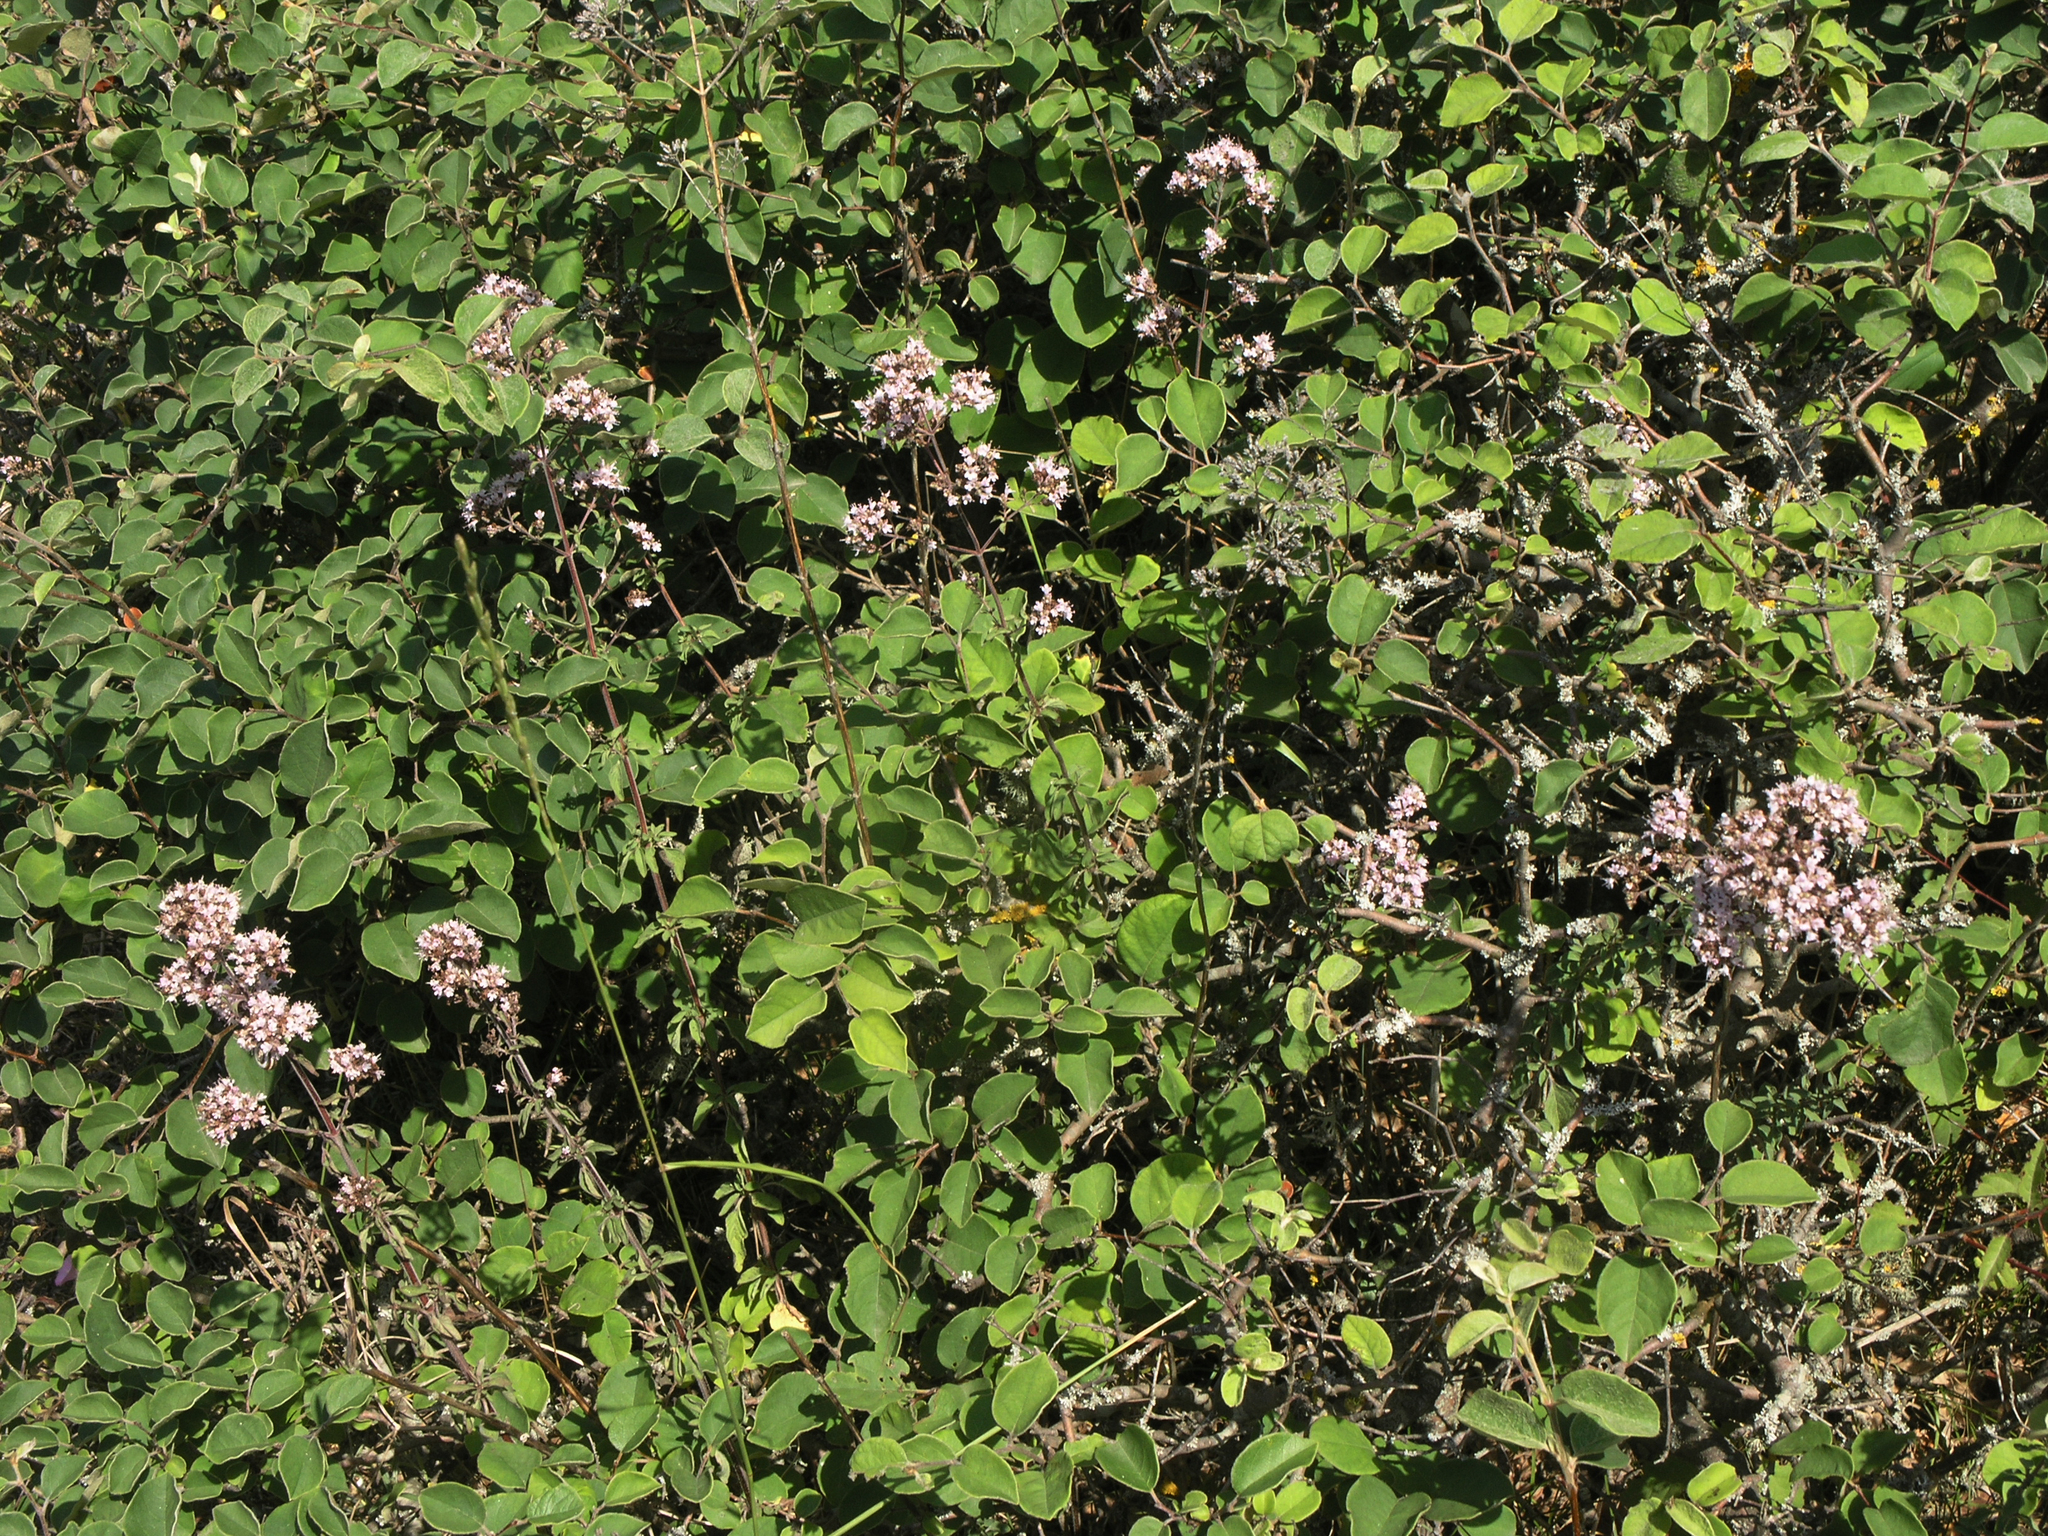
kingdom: Plantae
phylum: Tracheophyta
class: Magnoliopsida
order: Lamiales
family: Lamiaceae
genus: Origanum
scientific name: Origanum vulgare
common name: Wild marjoram
